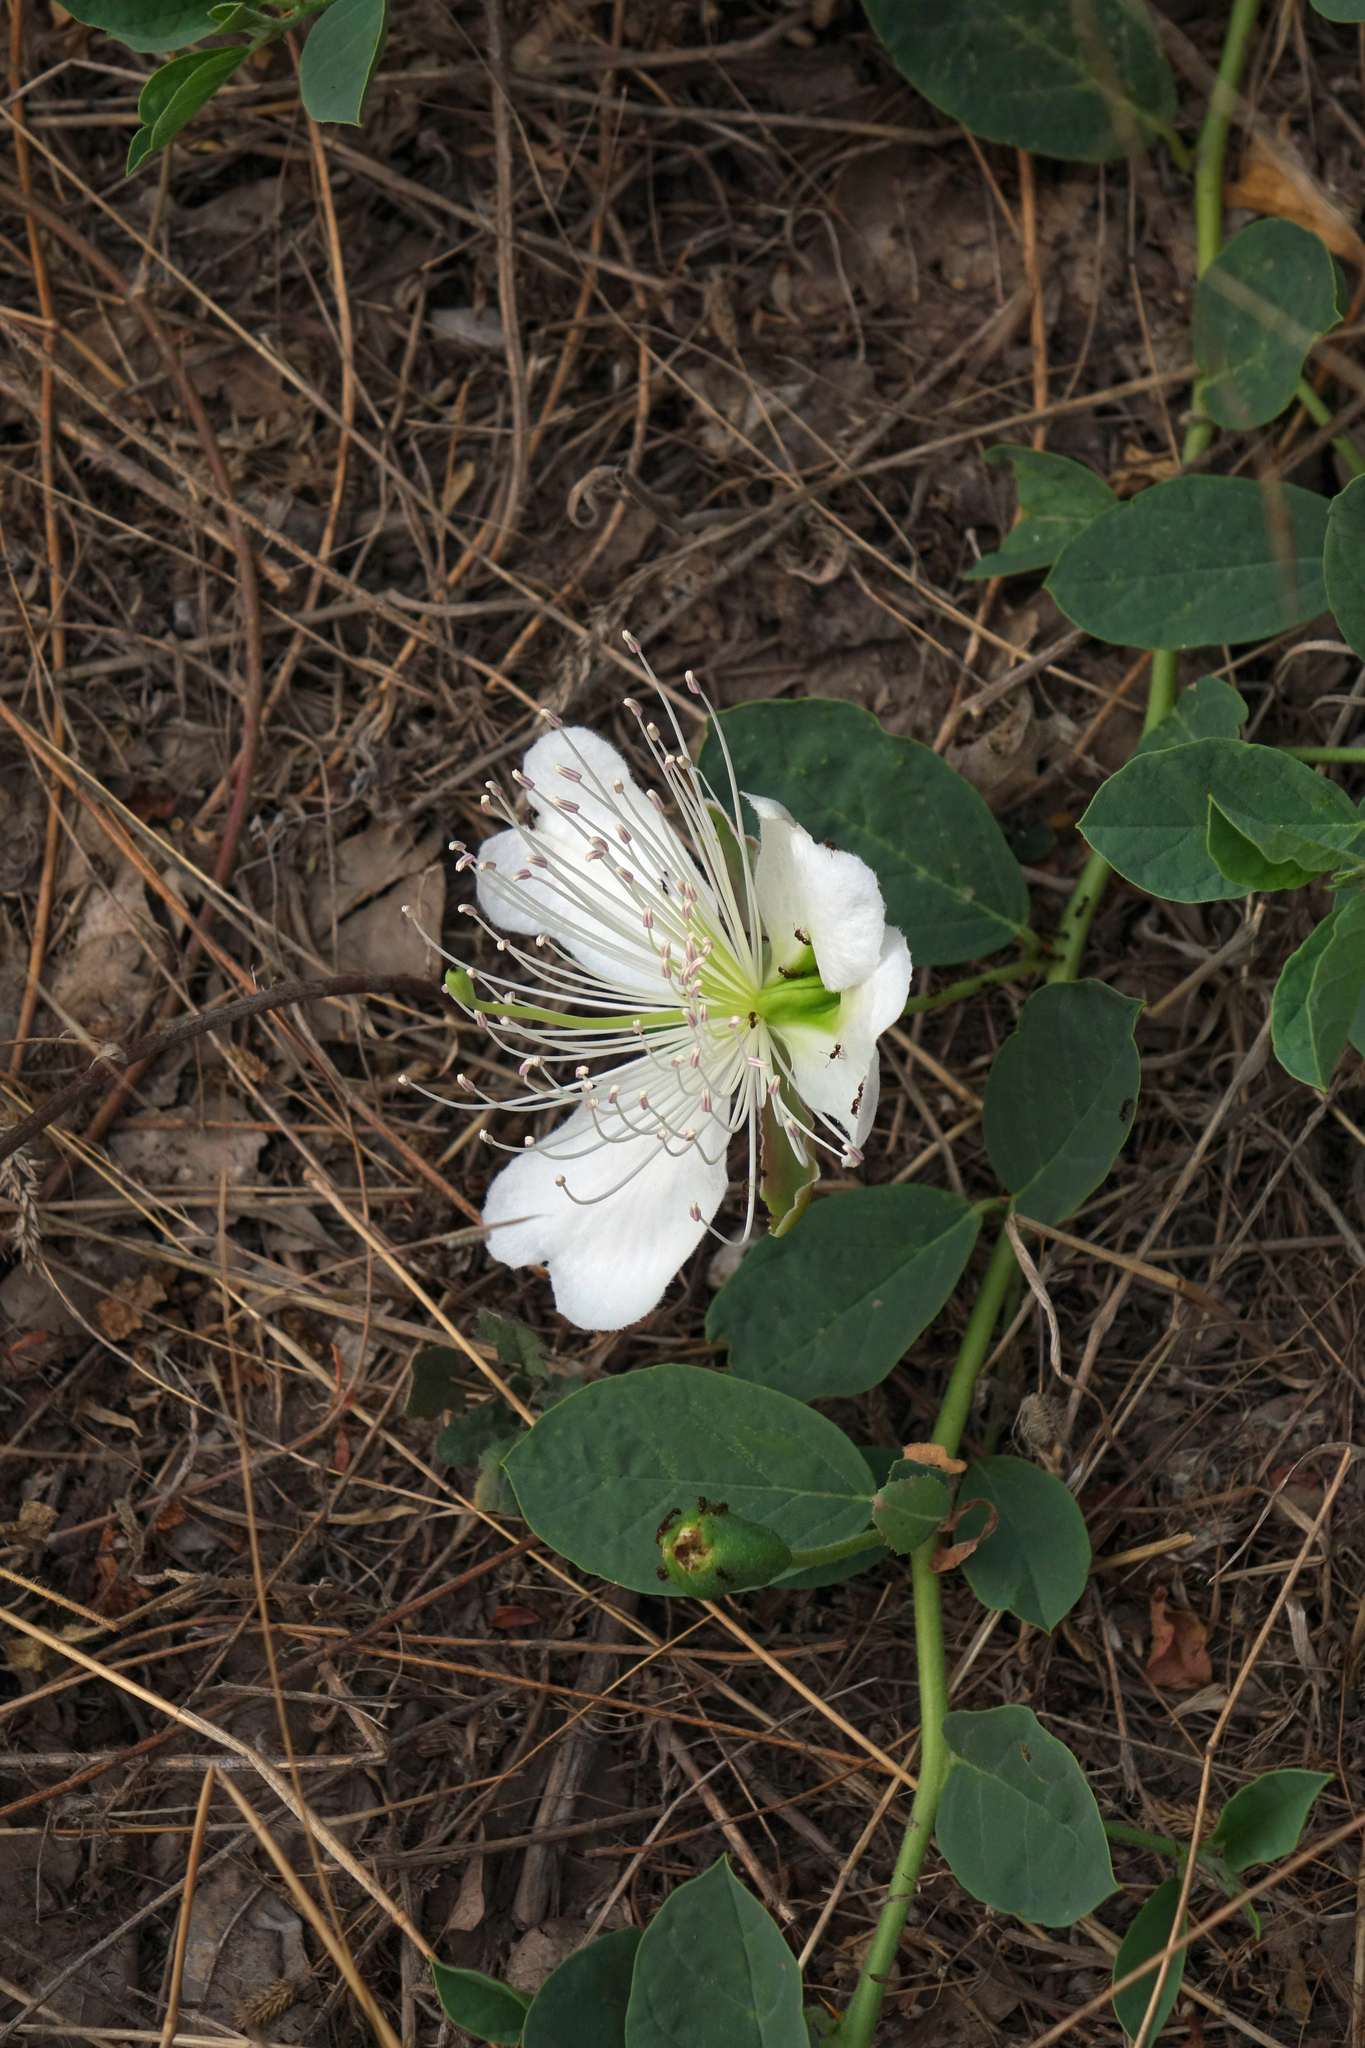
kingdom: Plantae
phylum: Tracheophyta
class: Magnoliopsida
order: Brassicales
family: Capparaceae
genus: Capparis
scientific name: Capparis spinosa
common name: Caper
